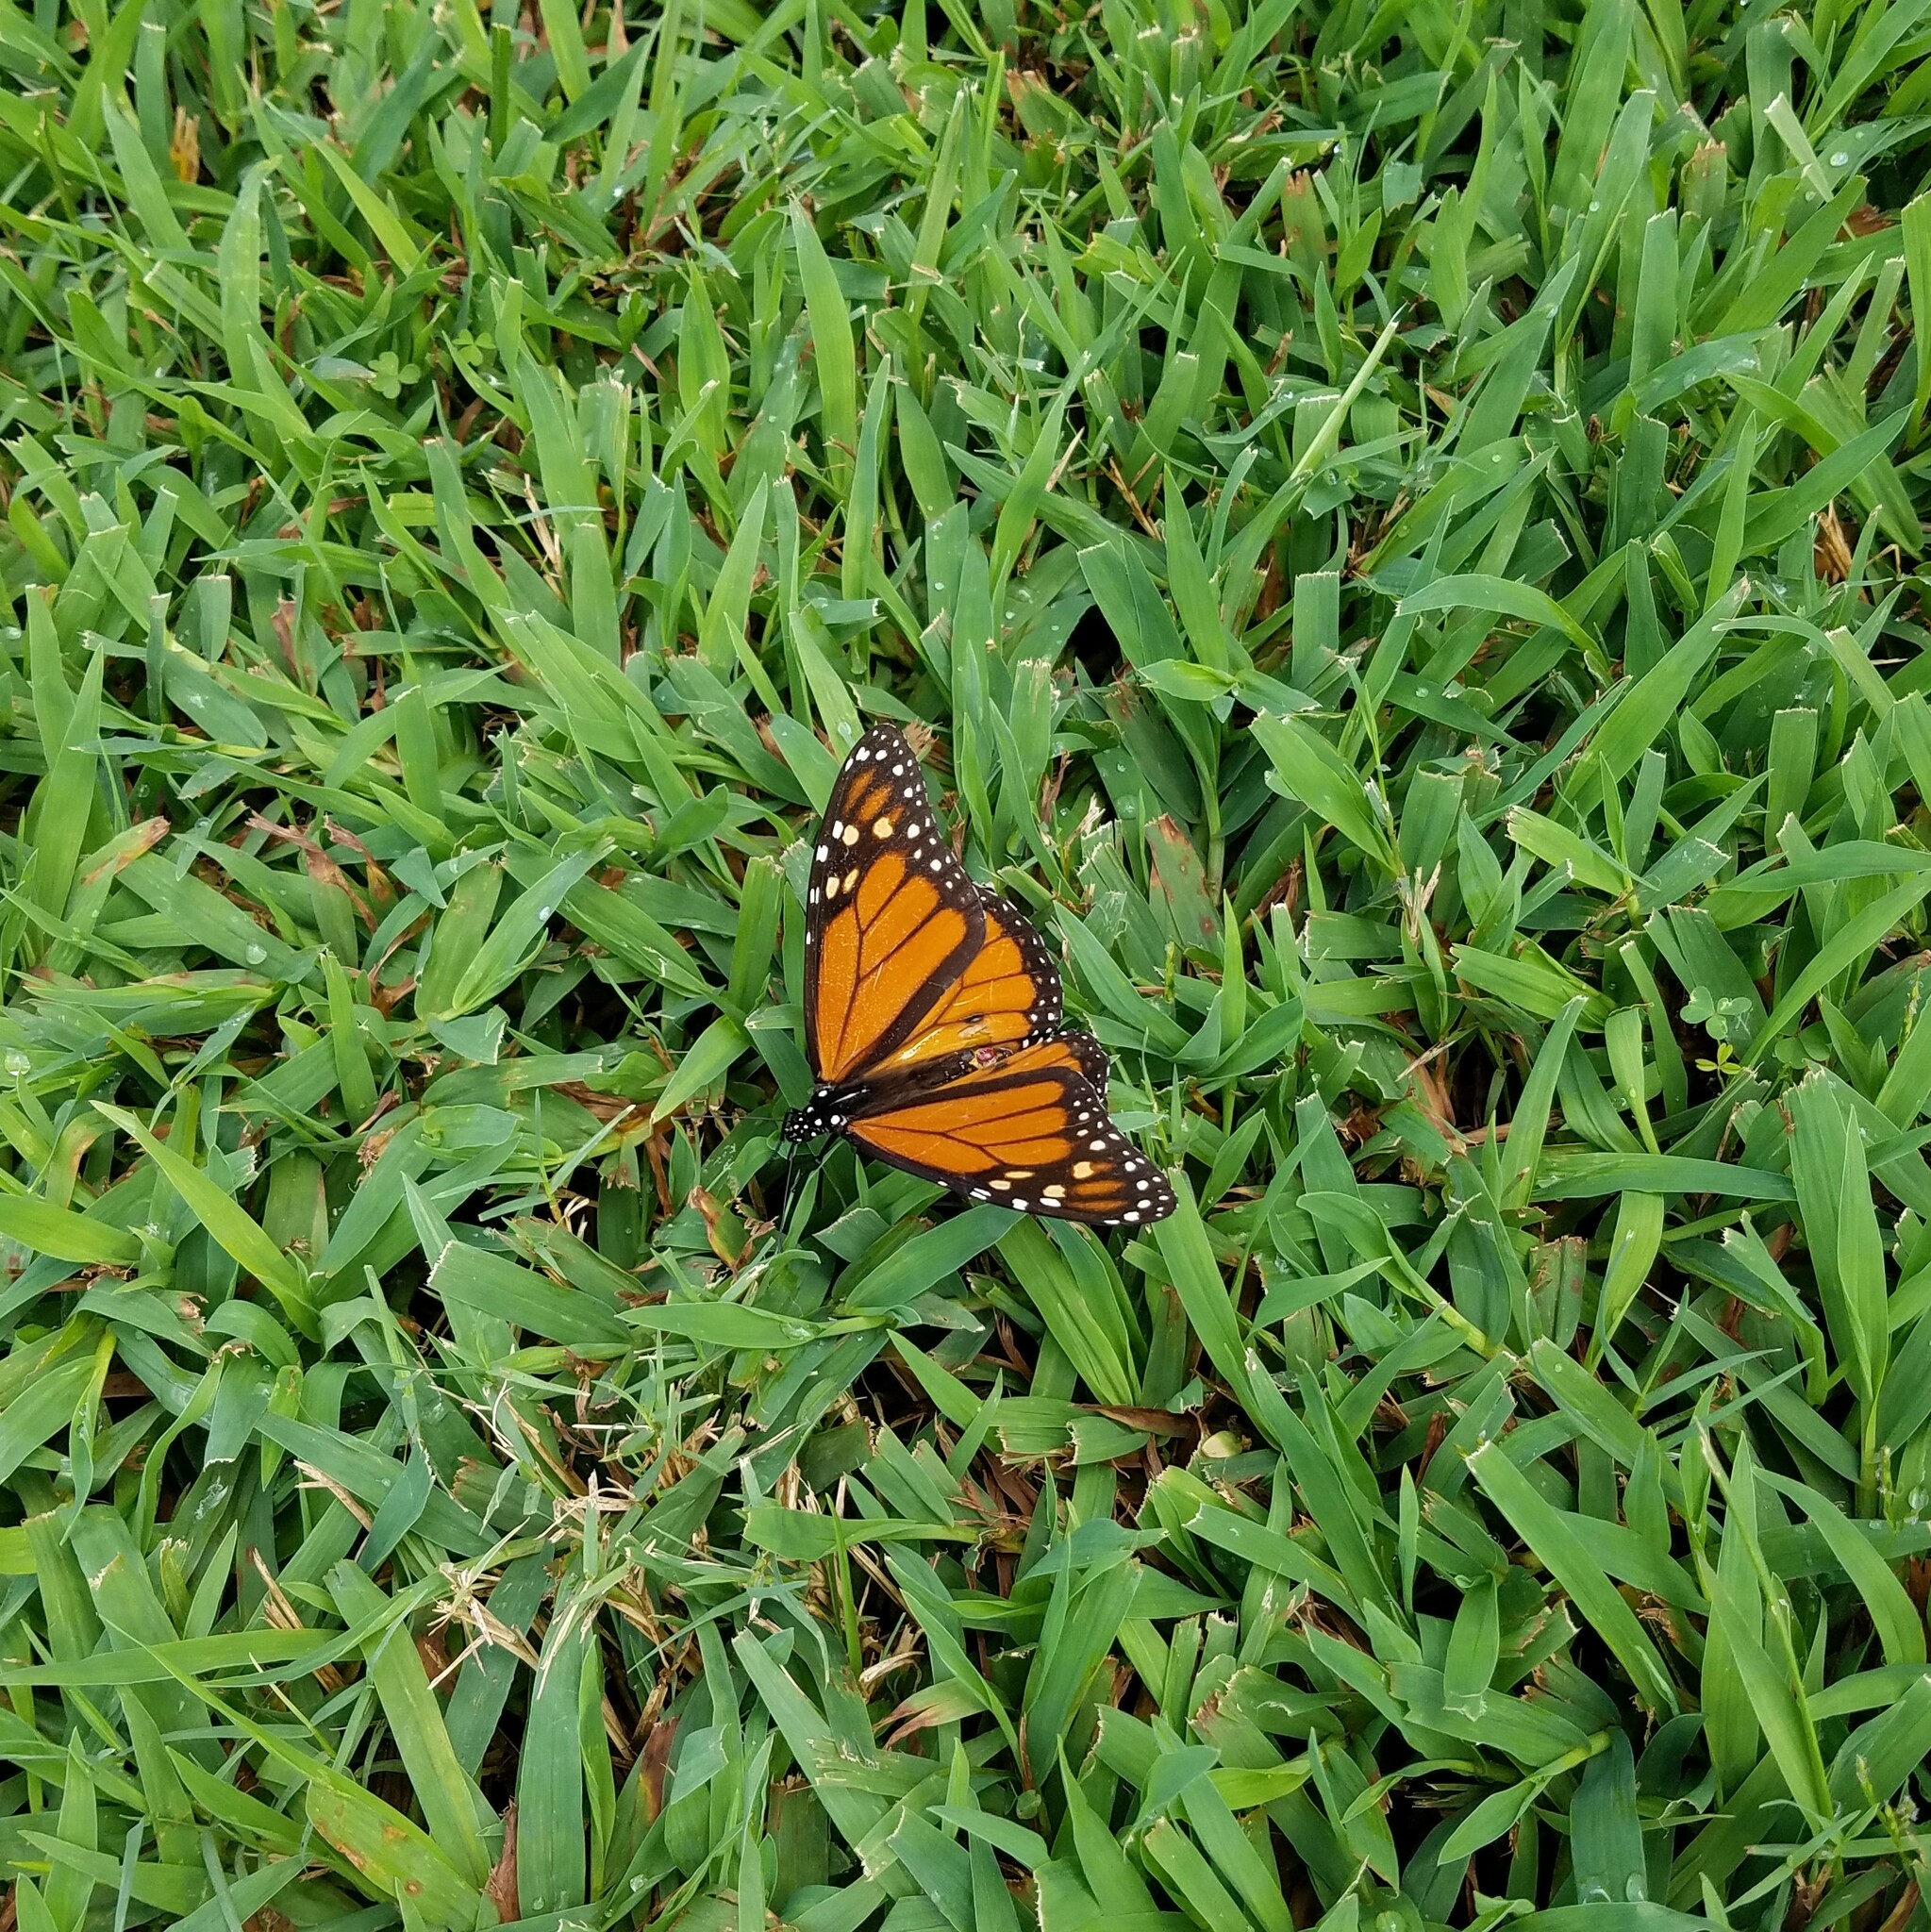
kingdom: Animalia
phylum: Arthropoda
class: Insecta
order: Lepidoptera
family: Nymphalidae
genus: Danaus
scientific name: Danaus plexippus
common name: Monarch
